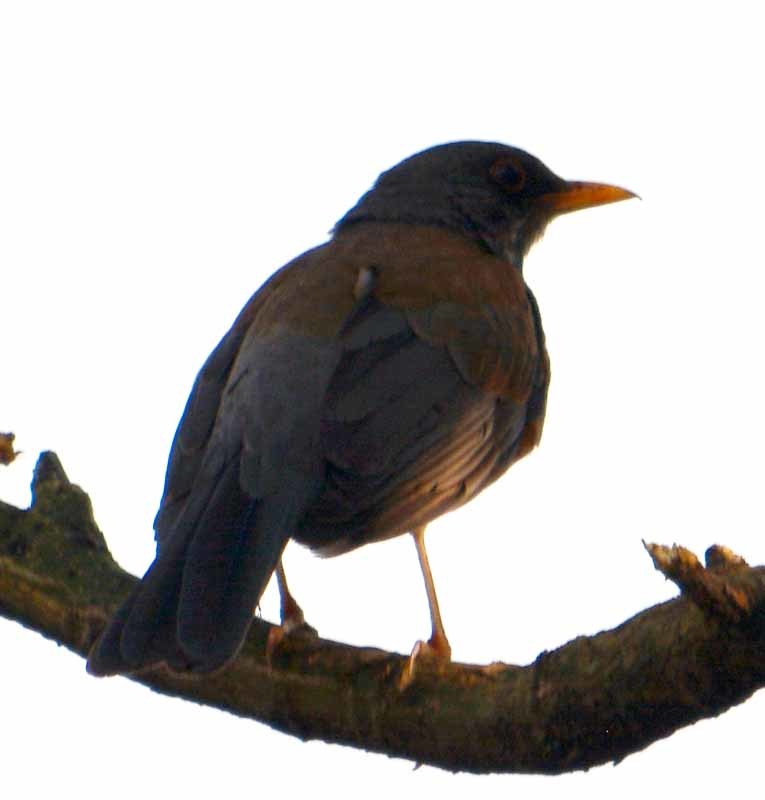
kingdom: Animalia
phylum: Chordata
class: Aves
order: Passeriformes
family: Turdidae
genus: Turdus
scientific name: Turdus rufopalliatus
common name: Rufous-backed robin
